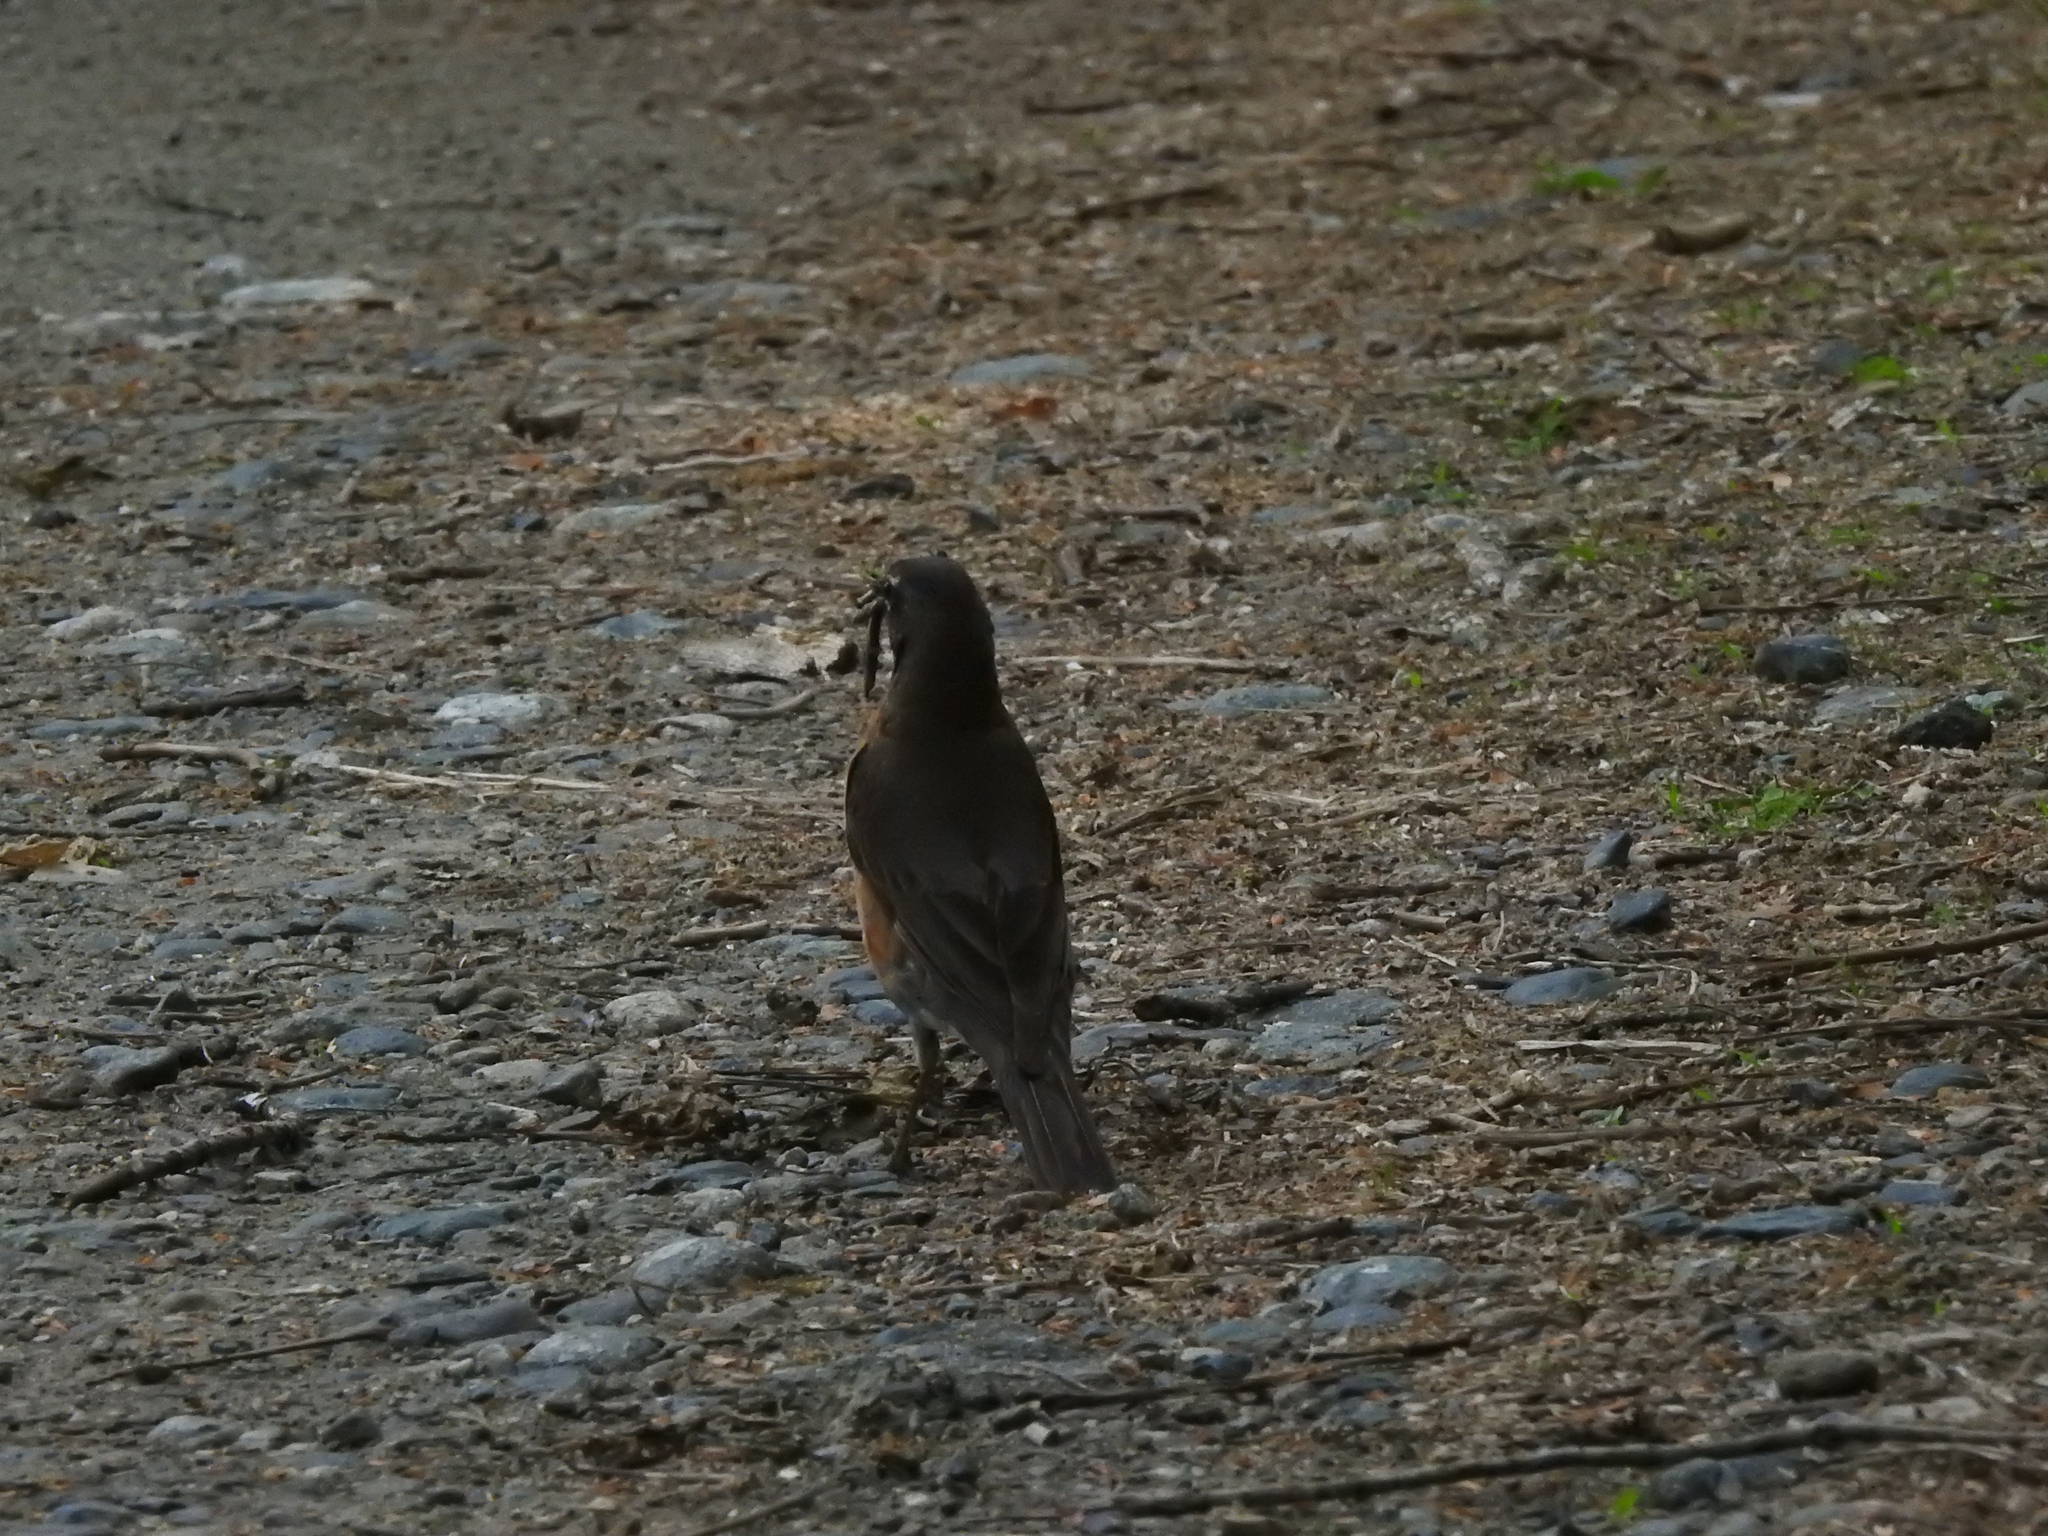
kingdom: Animalia
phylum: Chordata
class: Aves
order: Passeriformes
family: Turdidae
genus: Turdus
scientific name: Turdus migratorius
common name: American robin
